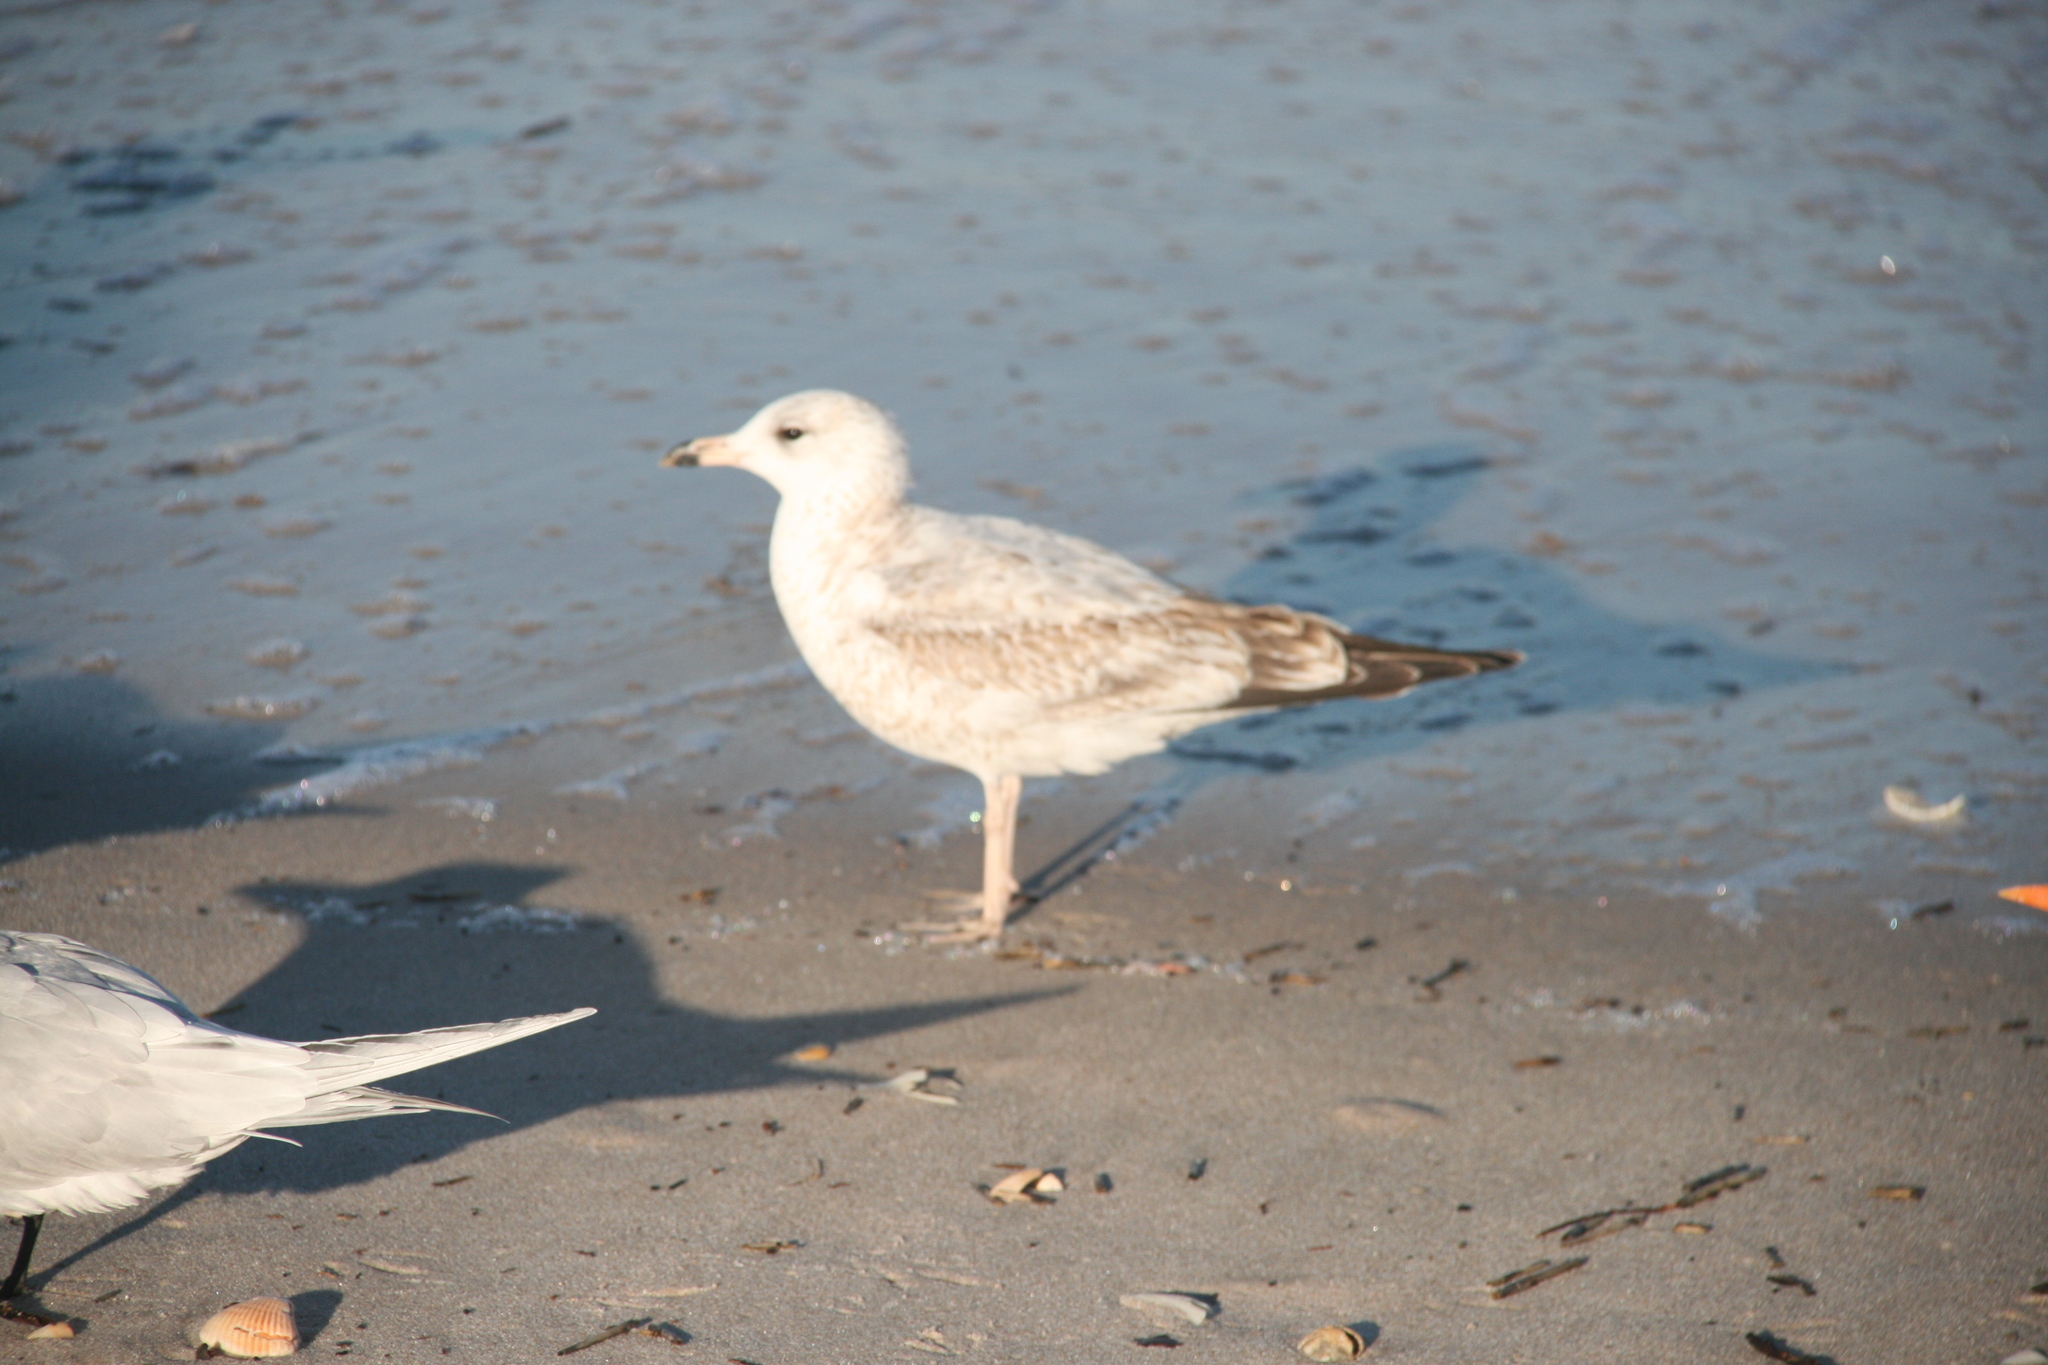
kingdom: Animalia
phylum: Chordata
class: Aves
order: Charadriiformes
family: Laridae
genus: Larus
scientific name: Larus delawarensis
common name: Ring-billed gull
